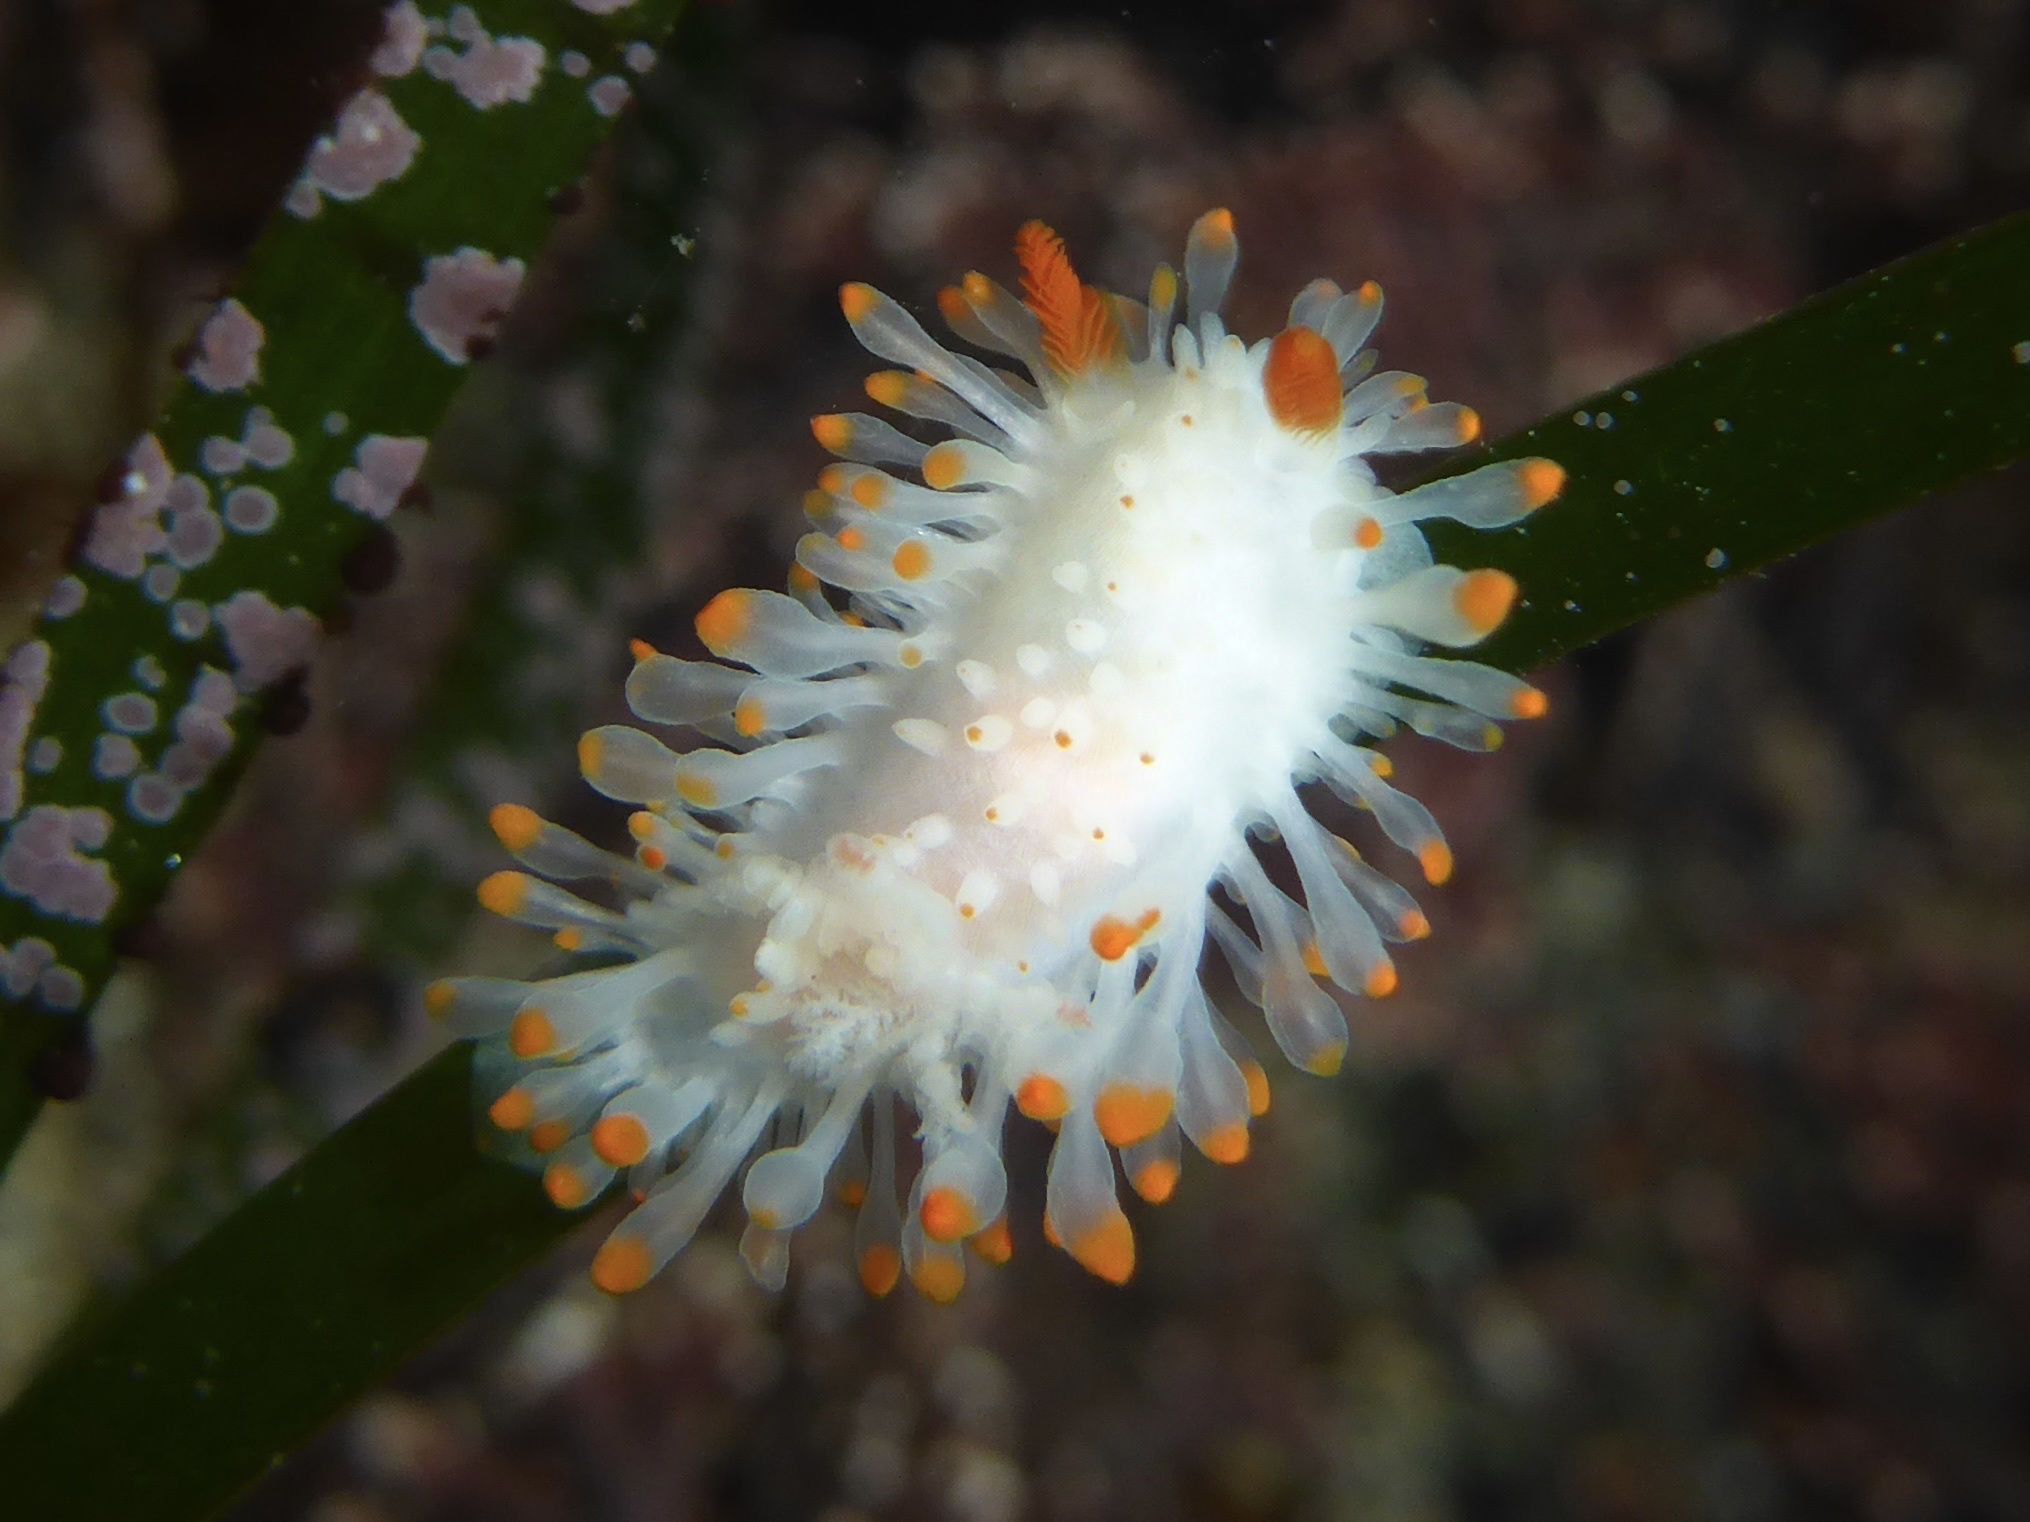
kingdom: Animalia
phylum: Mollusca
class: Gastropoda
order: Nudibranchia
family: Polyceridae
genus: Limacia
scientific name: Limacia cockerelli
